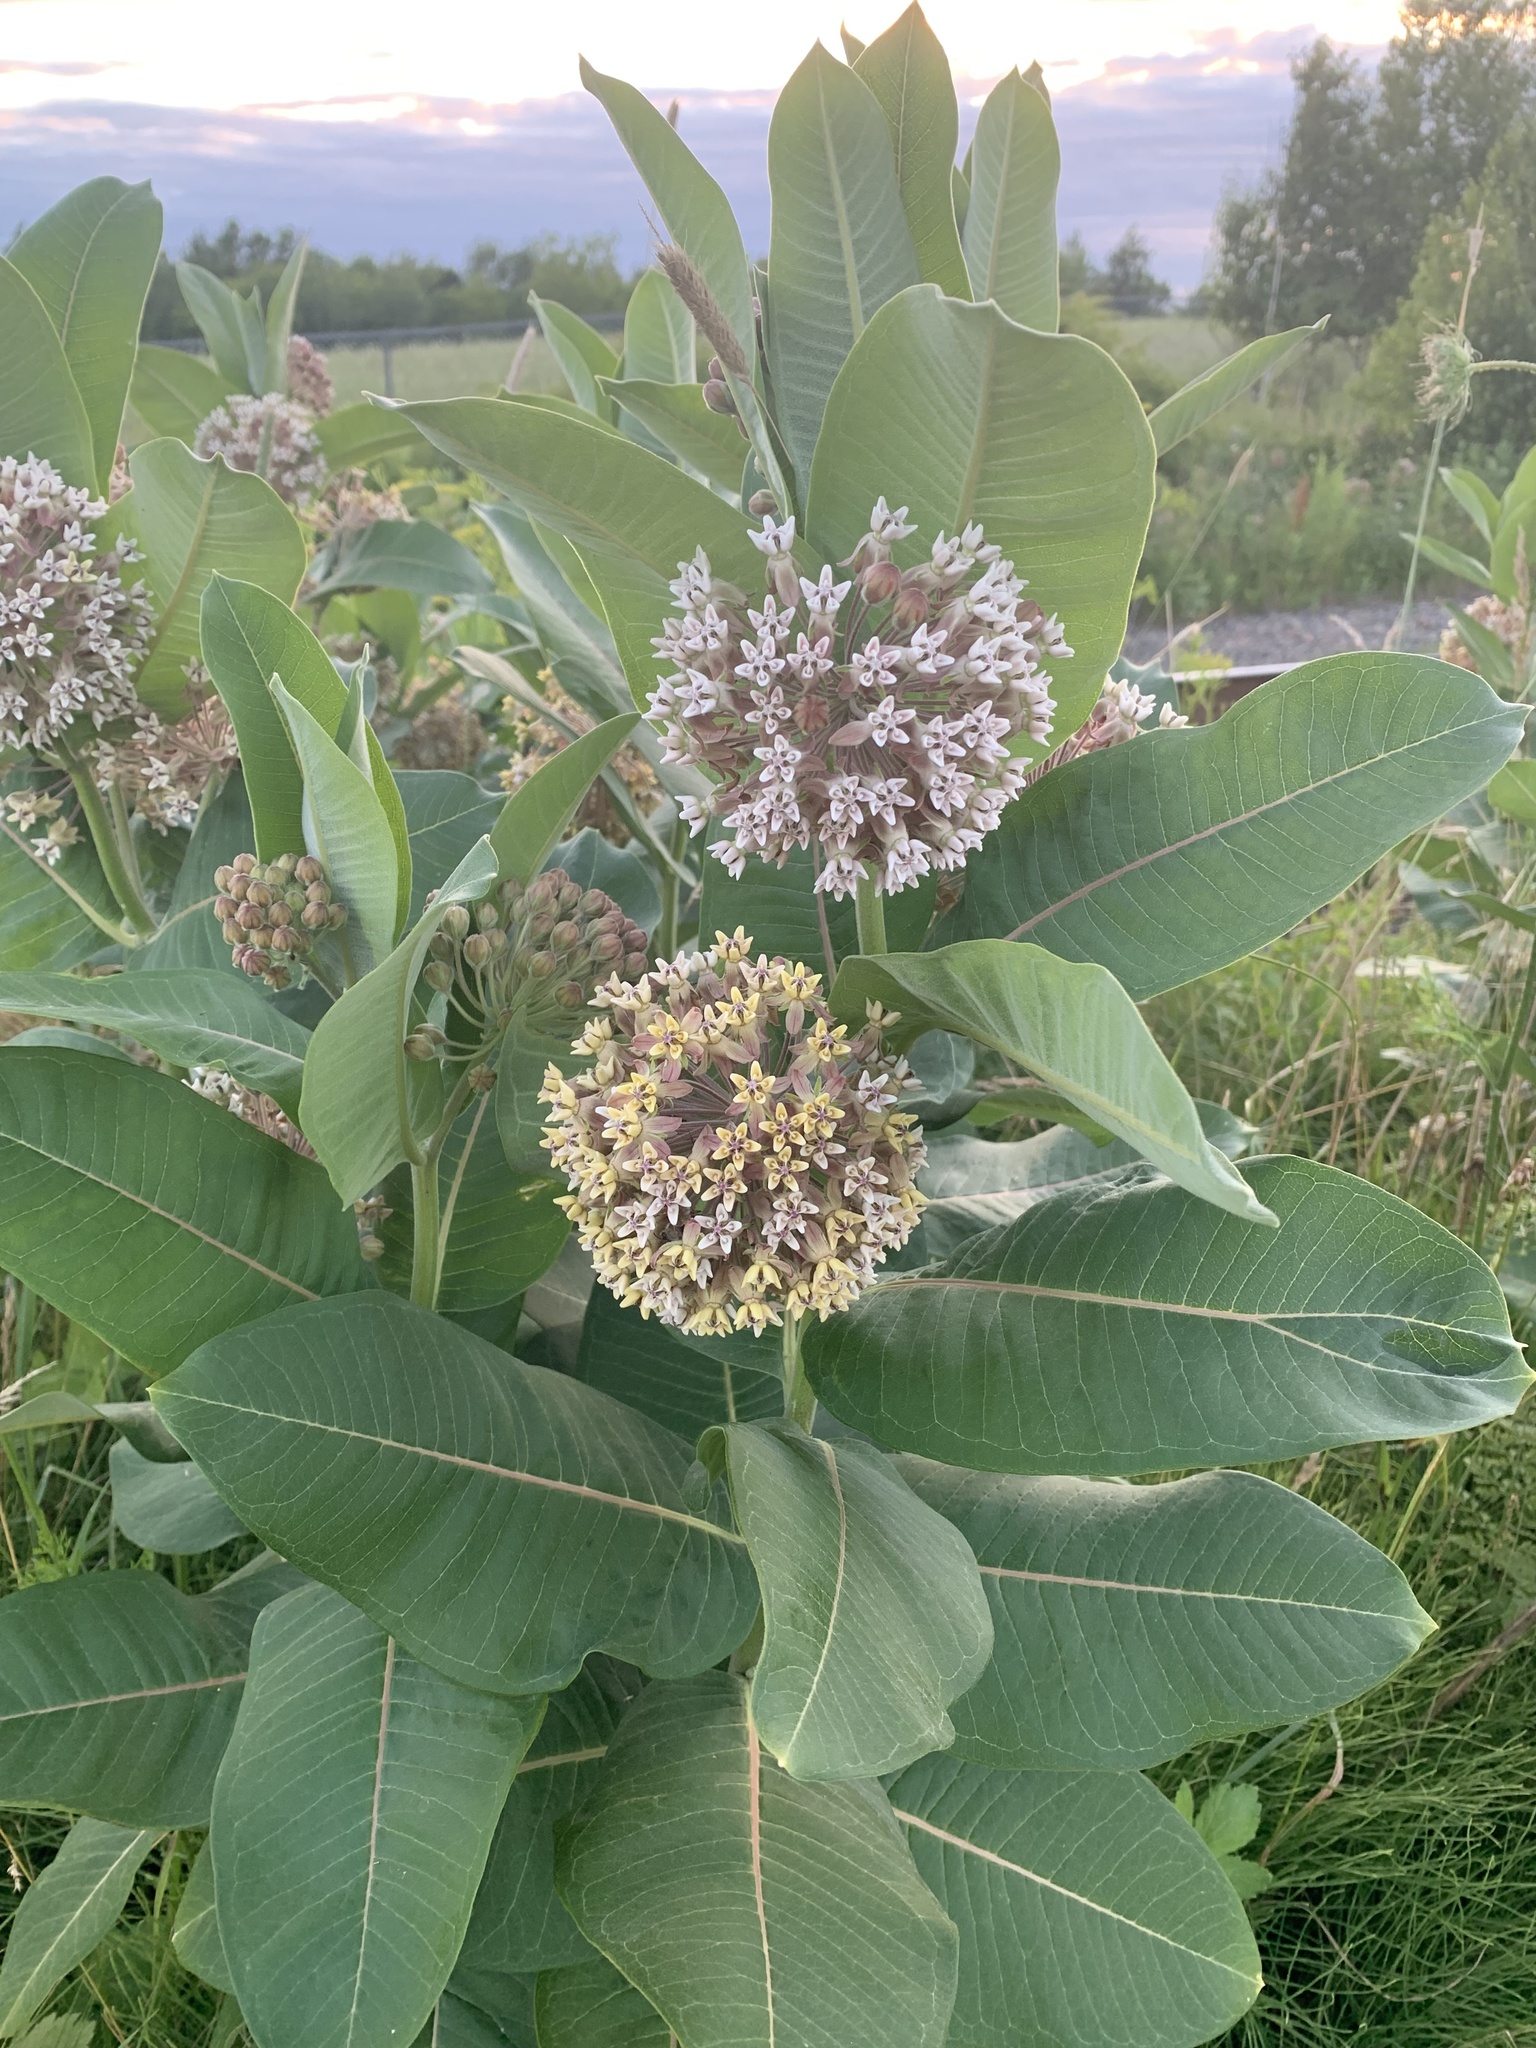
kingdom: Plantae
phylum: Tracheophyta
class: Magnoliopsida
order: Gentianales
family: Apocynaceae
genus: Asclepias
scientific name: Asclepias syriaca
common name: Common milkweed
